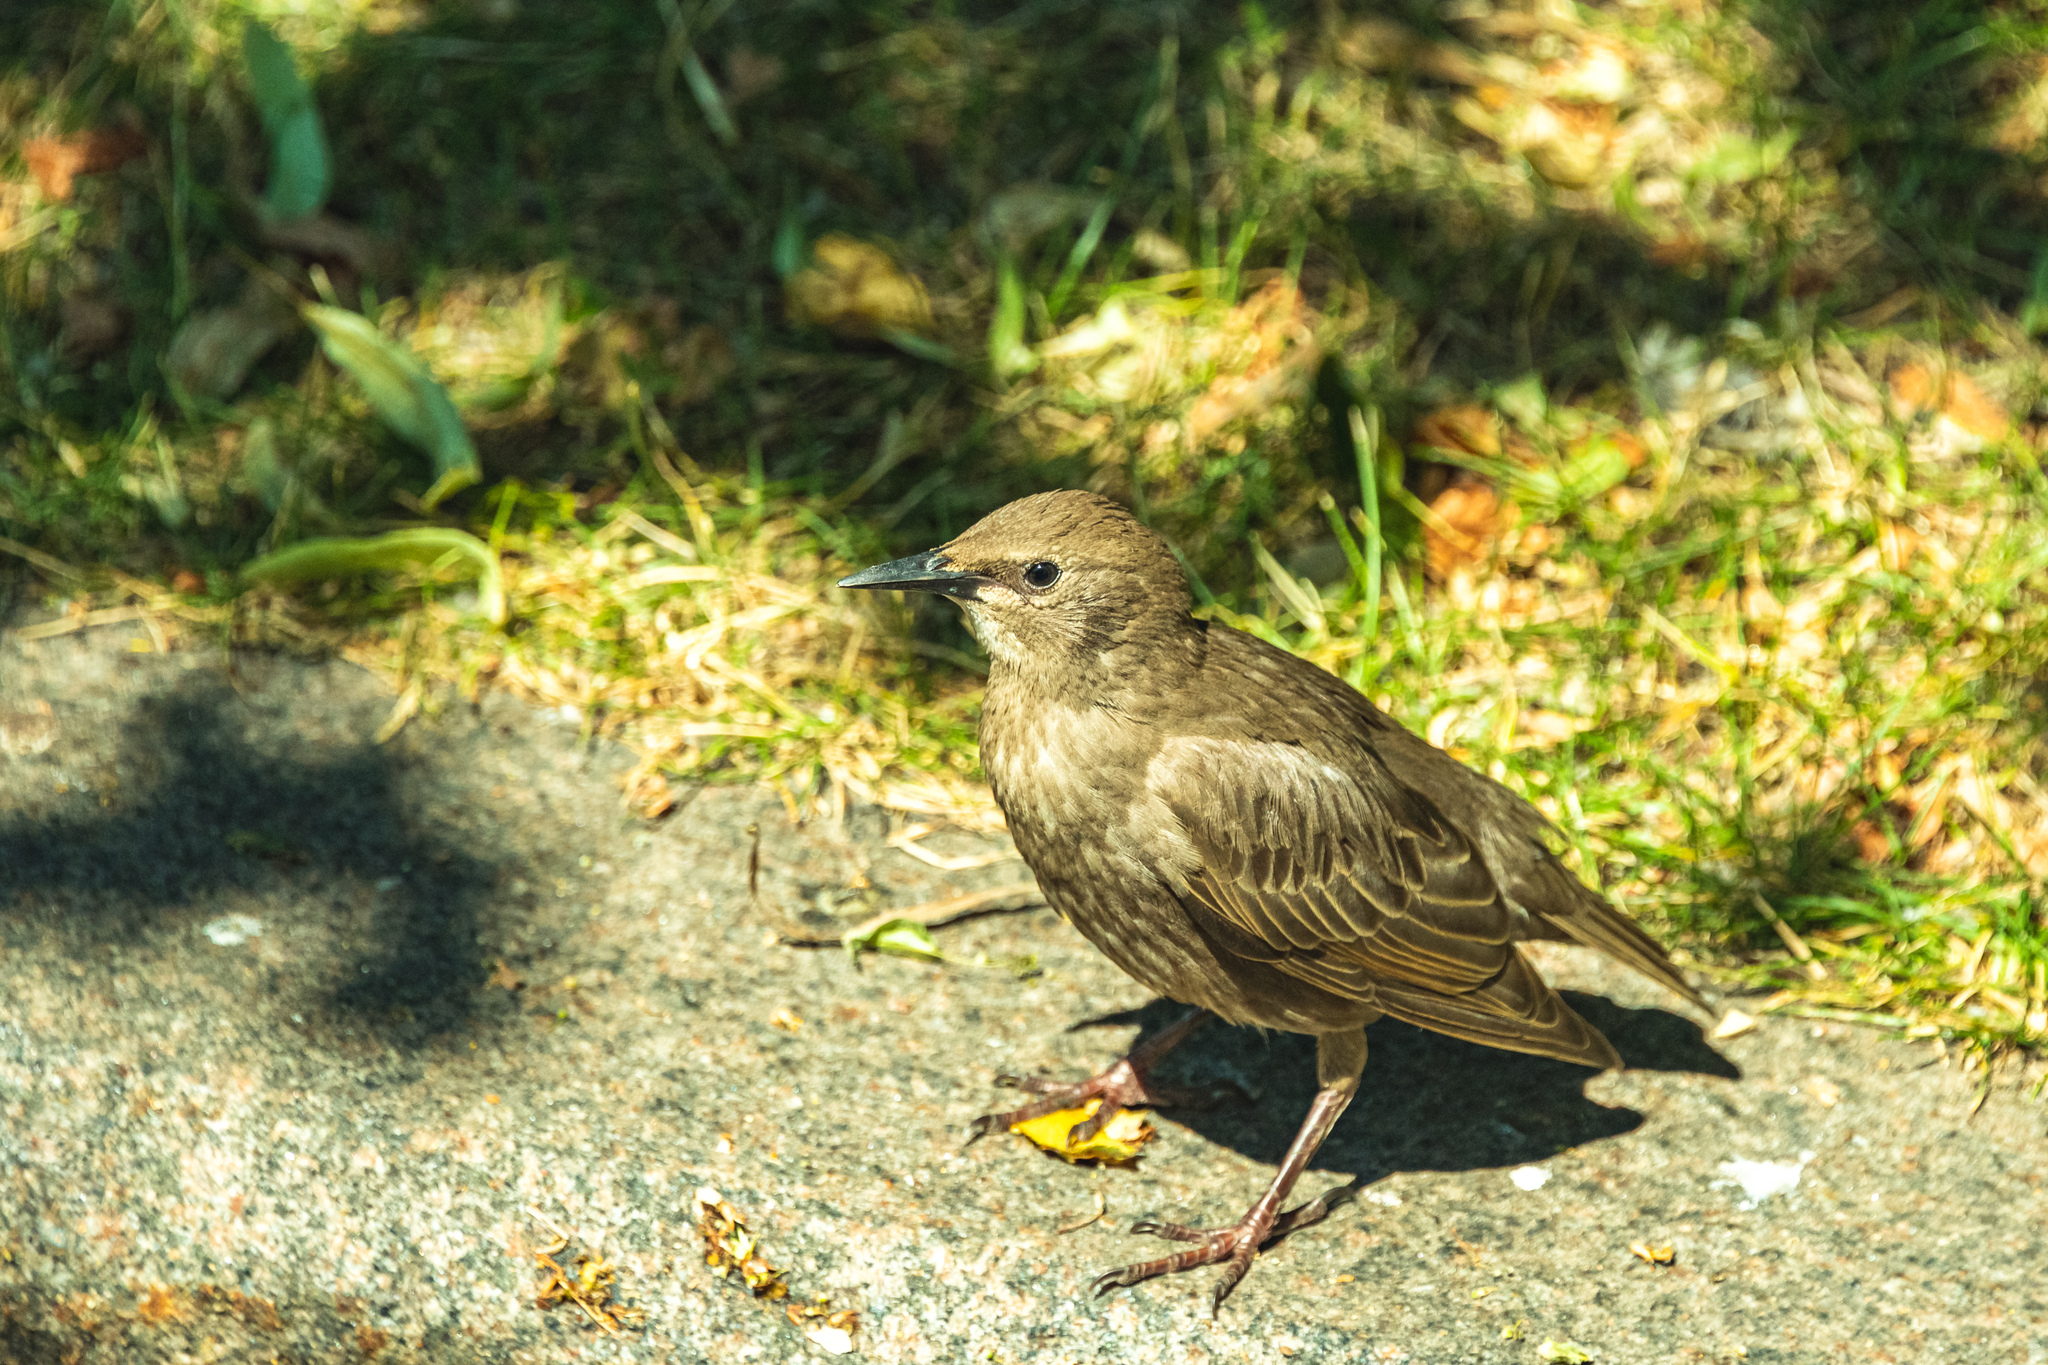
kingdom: Animalia
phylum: Chordata
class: Aves
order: Passeriformes
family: Sturnidae
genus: Sturnus
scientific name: Sturnus vulgaris
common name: Common starling
